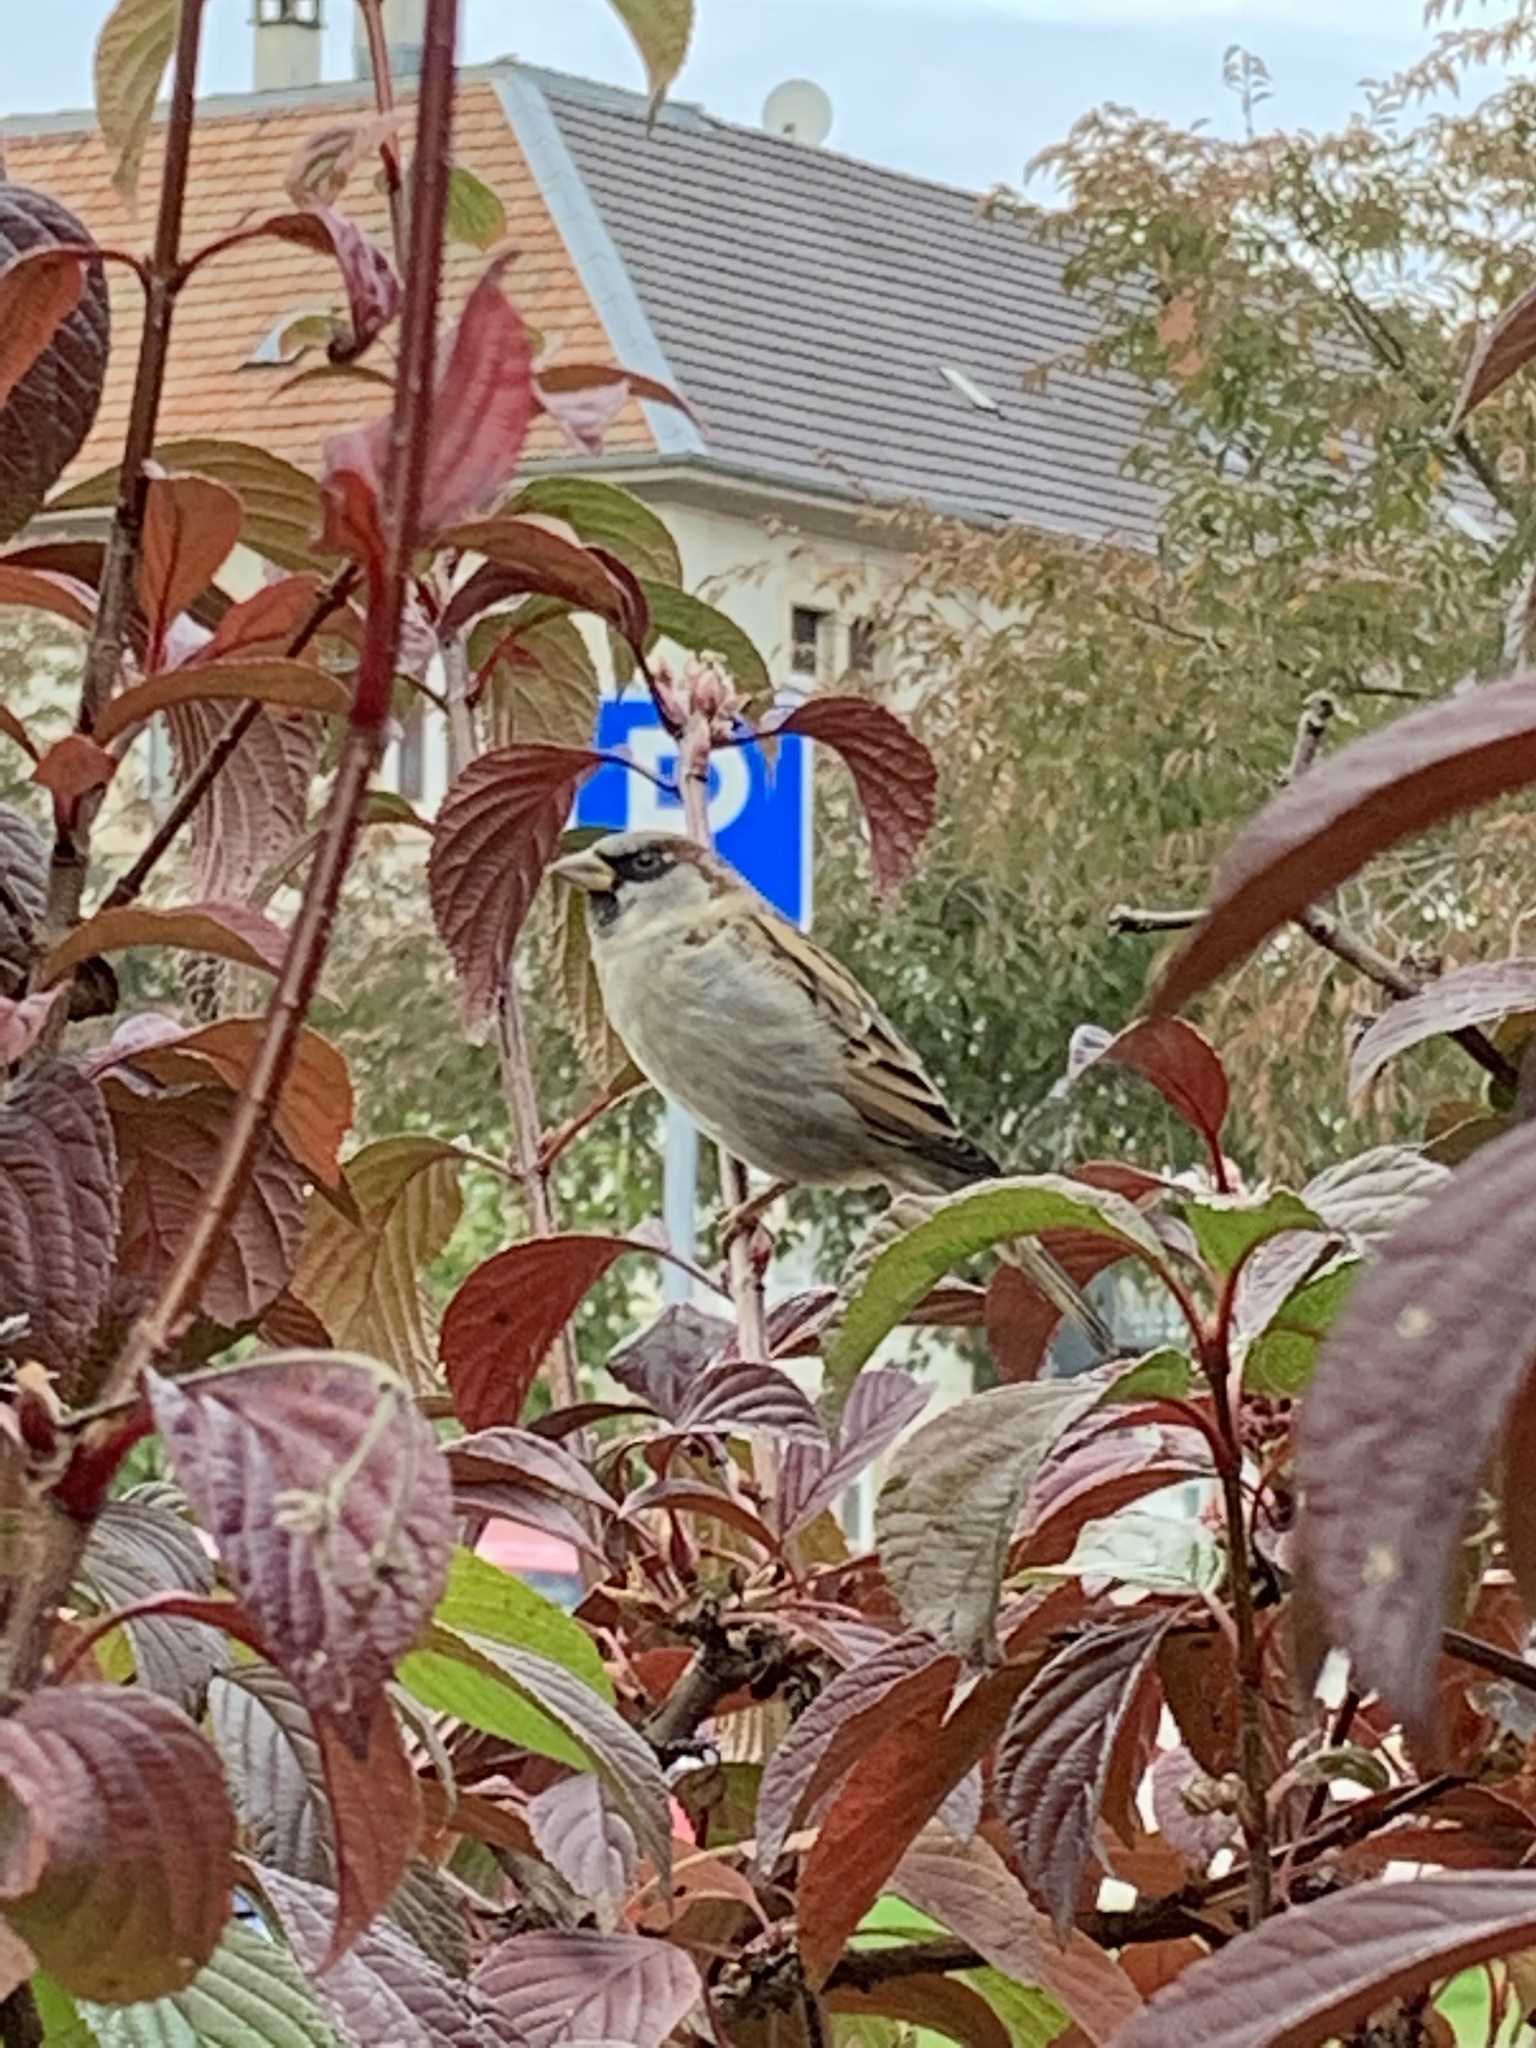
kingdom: Animalia
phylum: Chordata
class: Aves
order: Passeriformes
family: Passeridae
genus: Passer
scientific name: Passer domesticus
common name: House sparrow
